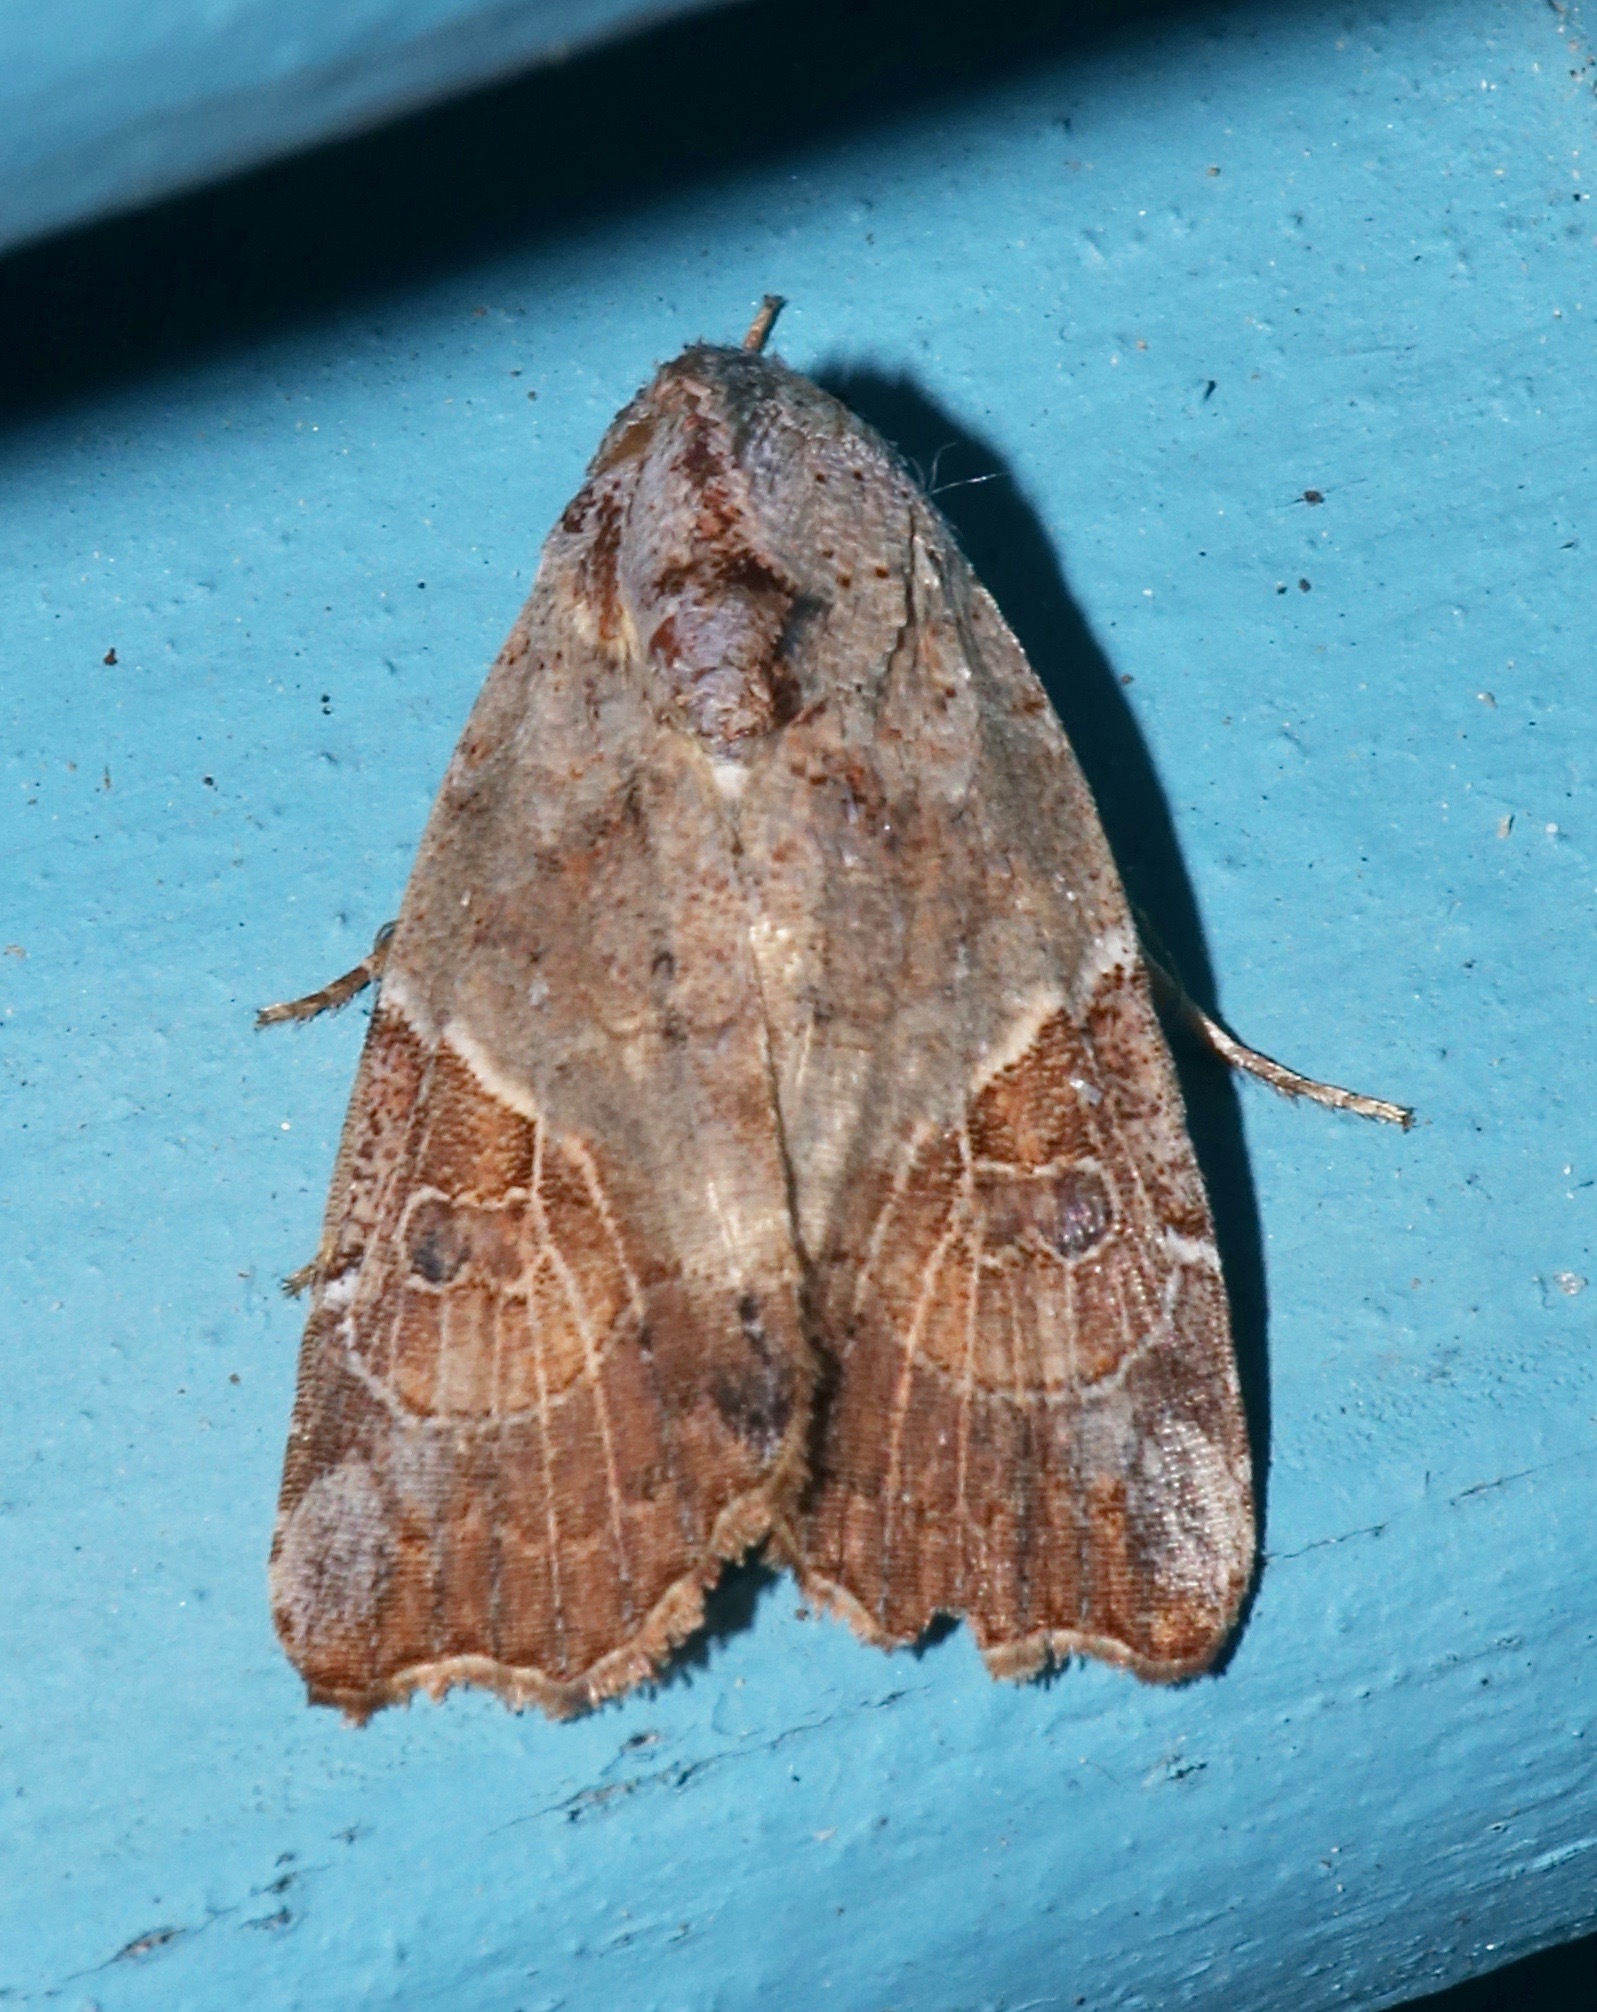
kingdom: Animalia
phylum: Arthropoda
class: Insecta
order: Lepidoptera
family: Noctuidae
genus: Gonodes
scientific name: Gonodes liquida
